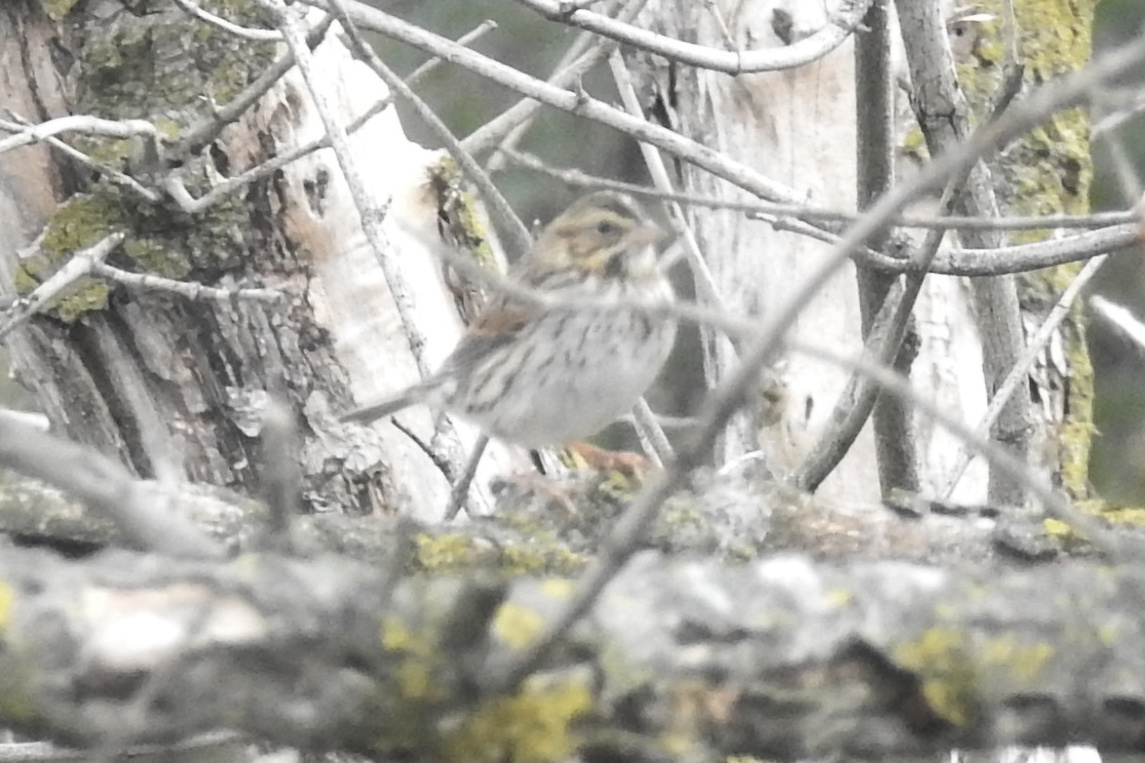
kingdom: Animalia
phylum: Chordata
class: Aves
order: Passeriformes
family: Passerellidae
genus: Passerculus
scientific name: Passerculus sandwichensis
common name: Savannah sparrow
